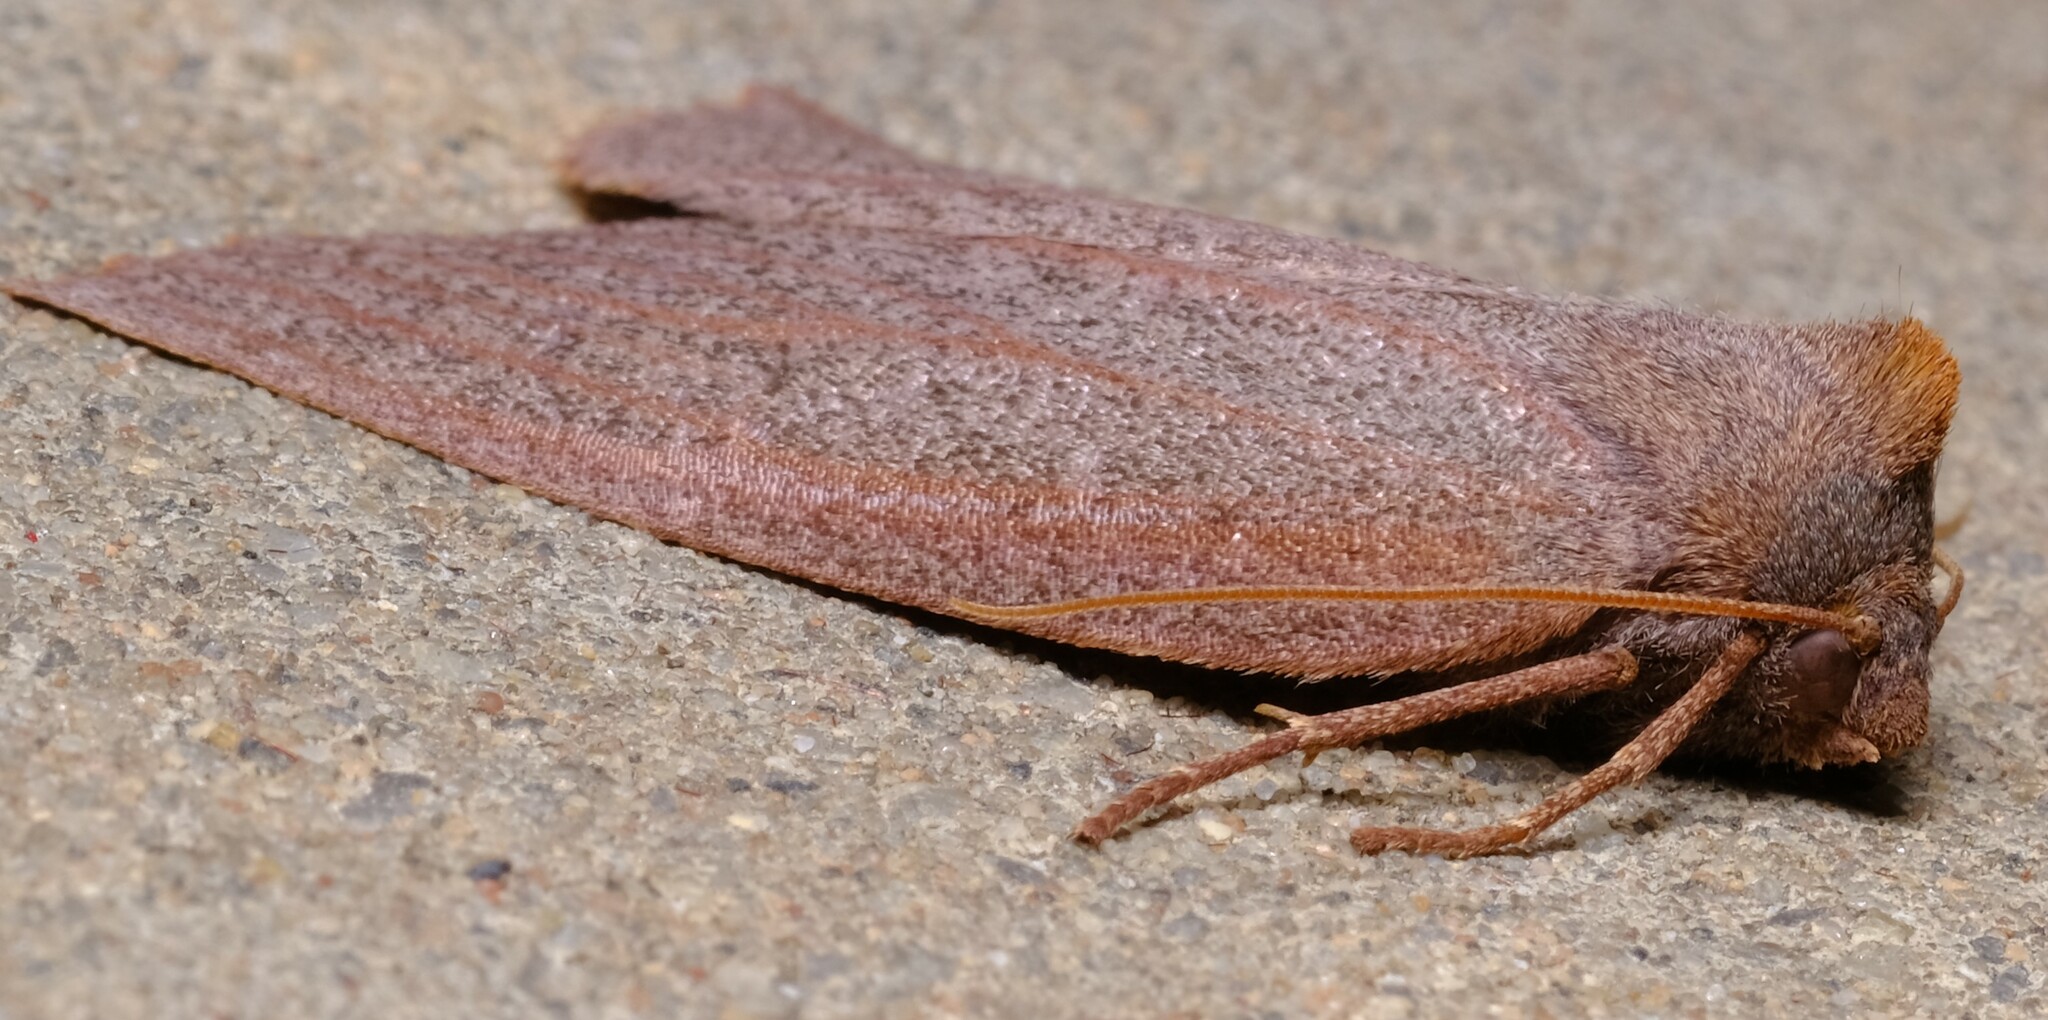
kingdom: Animalia
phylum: Arthropoda
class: Insecta
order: Lepidoptera
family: Geometridae
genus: Paralaea
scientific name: Paralaea sarcodes
